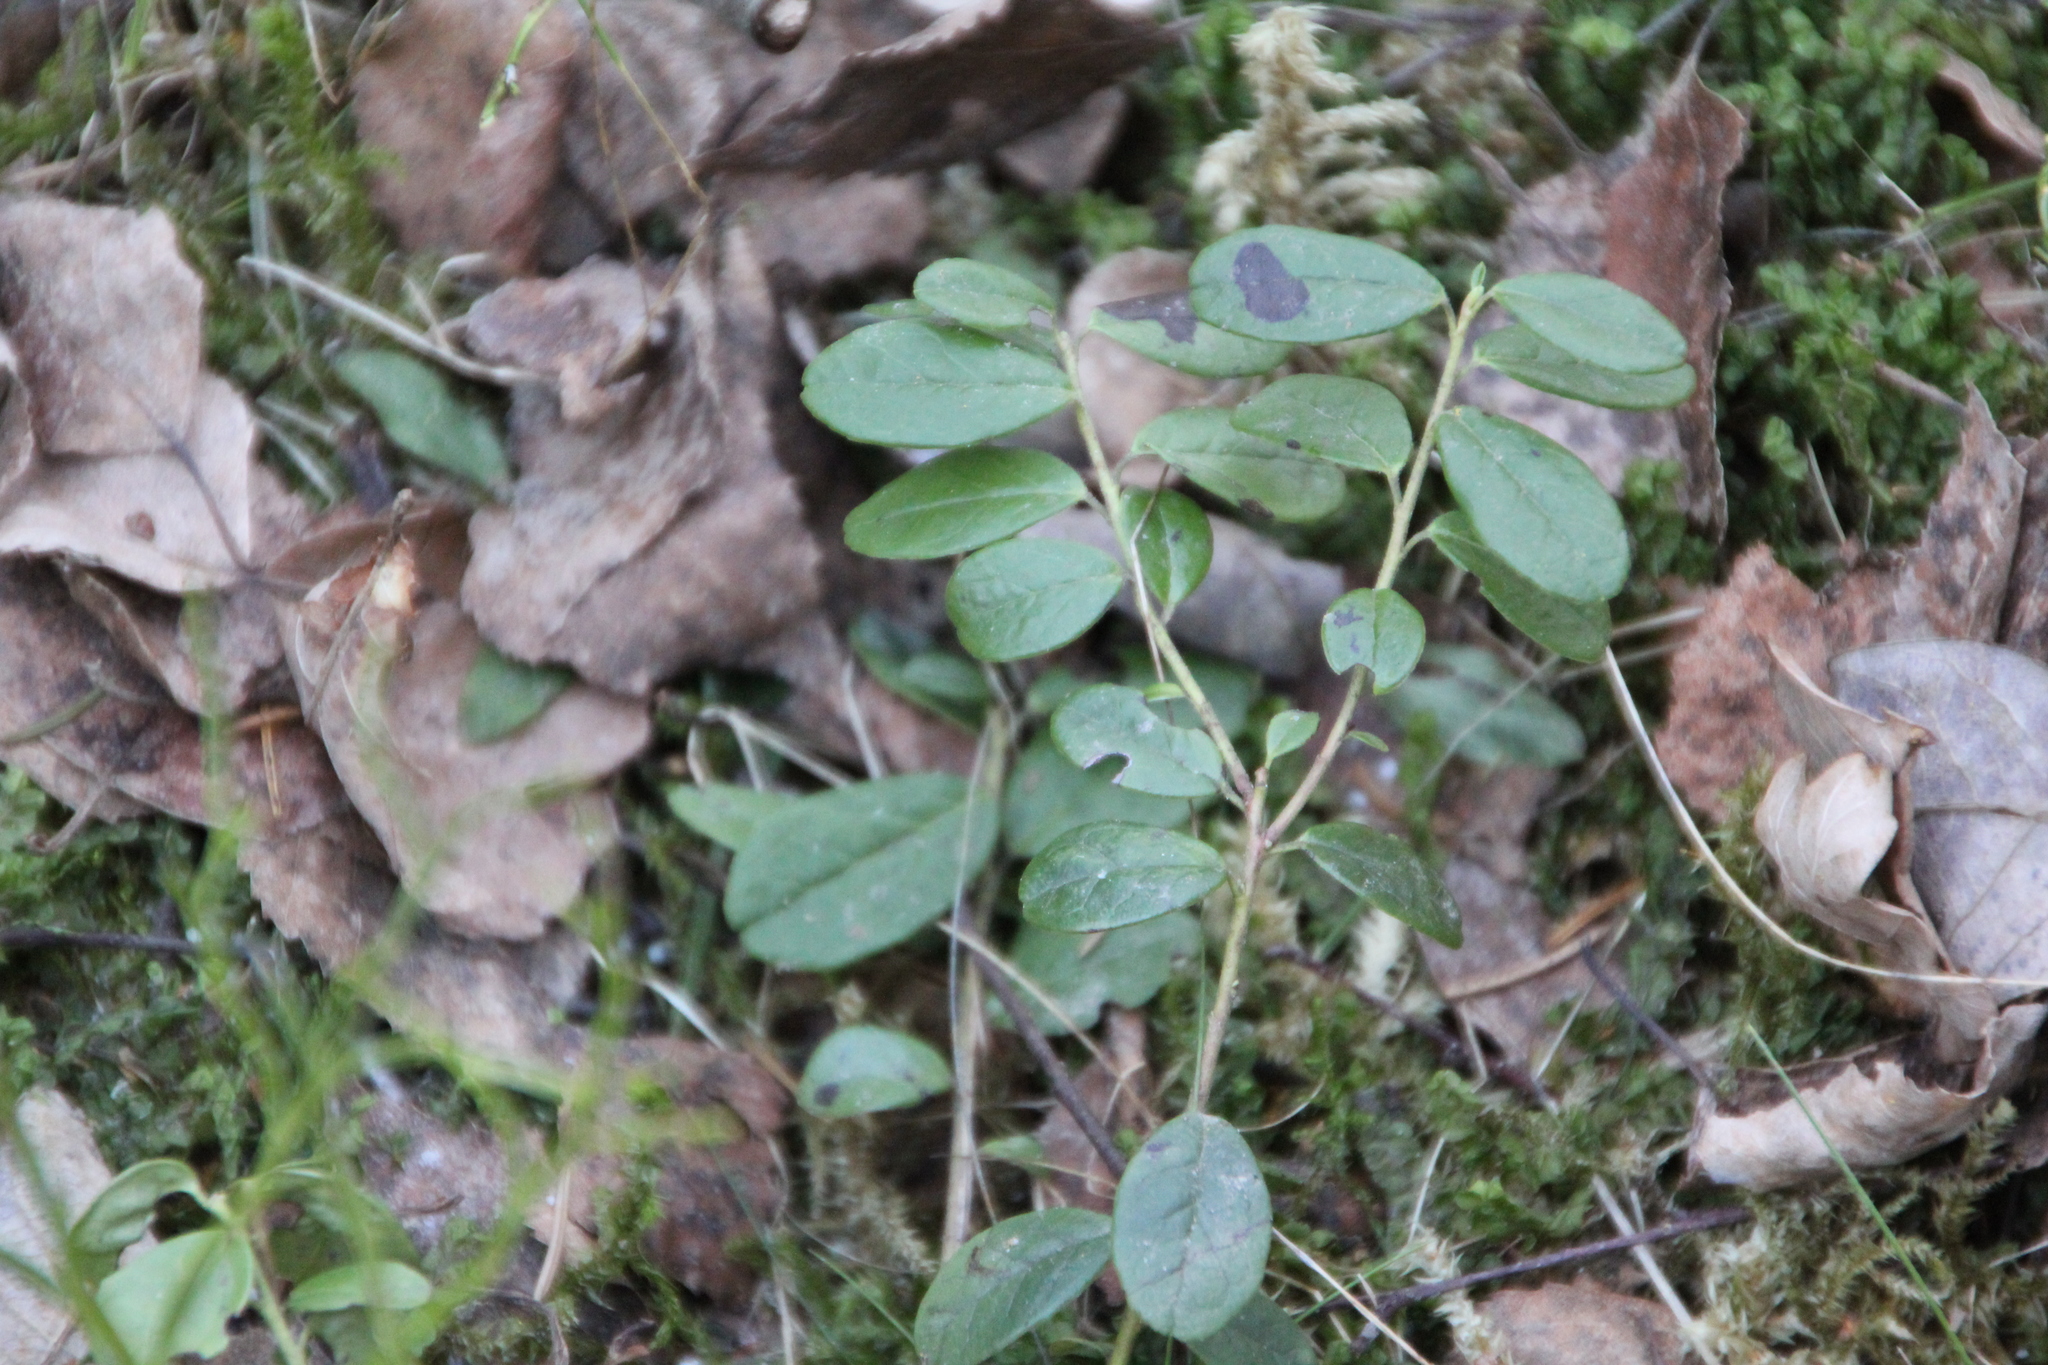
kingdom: Plantae
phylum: Tracheophyta
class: Magnoliopsida
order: Ericales
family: Ericaceae
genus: Vaccinium
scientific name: Vaccinium vitis-idaea
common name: Cowberry
